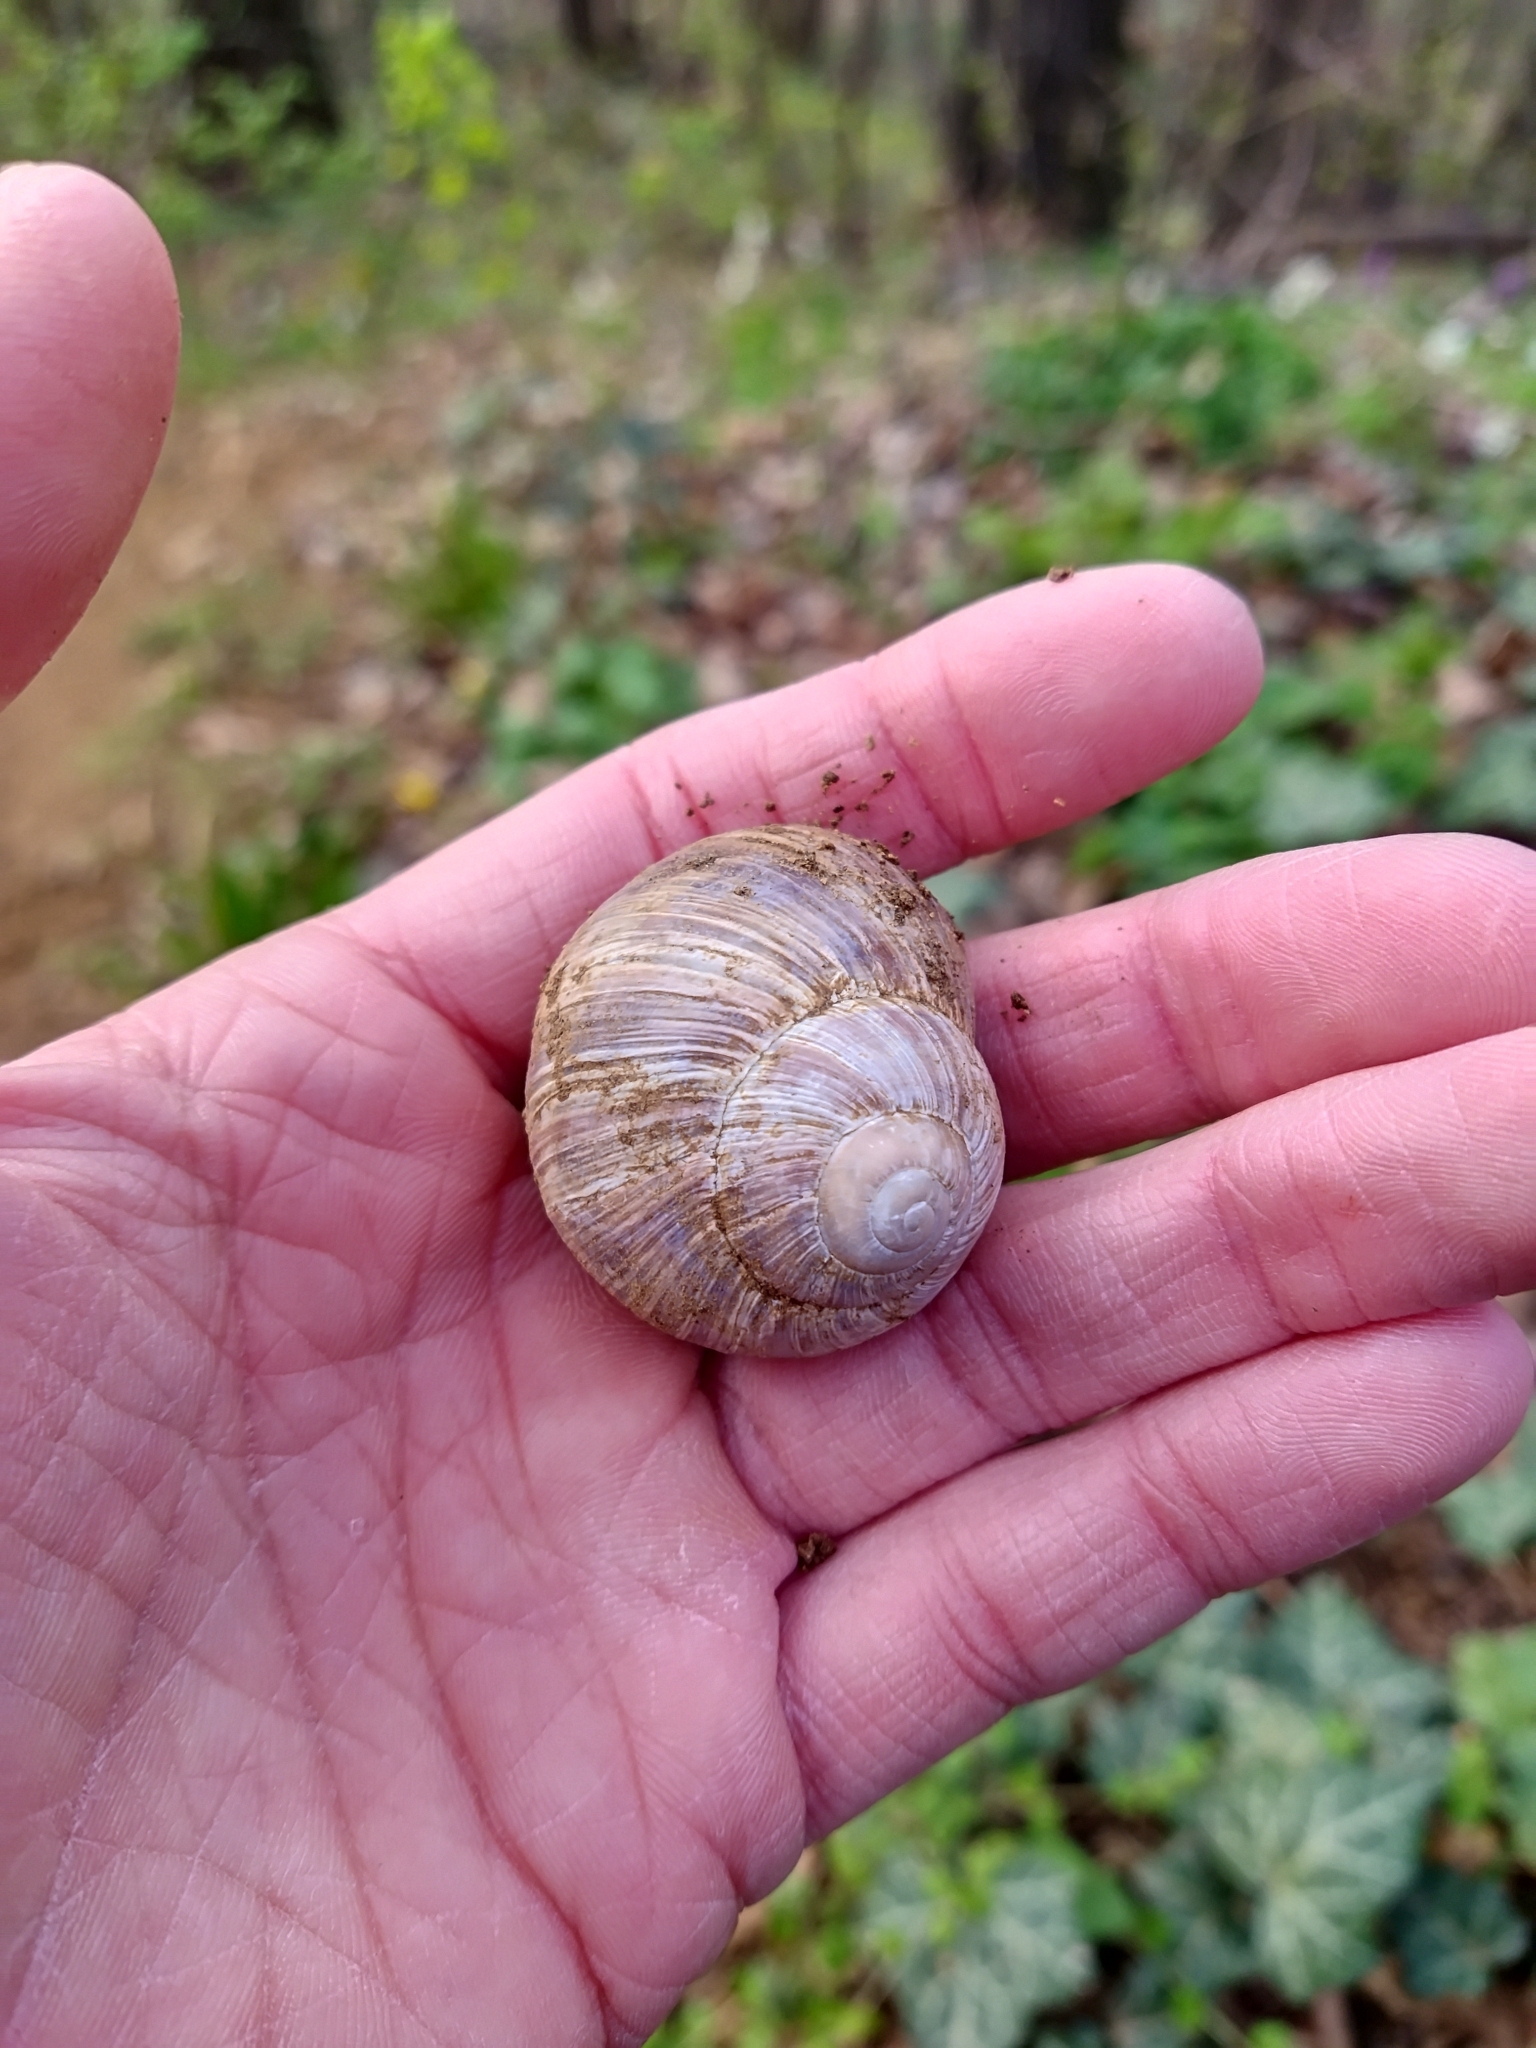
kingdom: Animalia
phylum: Mollusca
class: Gastropoda
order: Stylommatophora
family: Helicidae
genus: Helix
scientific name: Helix pomatia
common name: Roman snail
